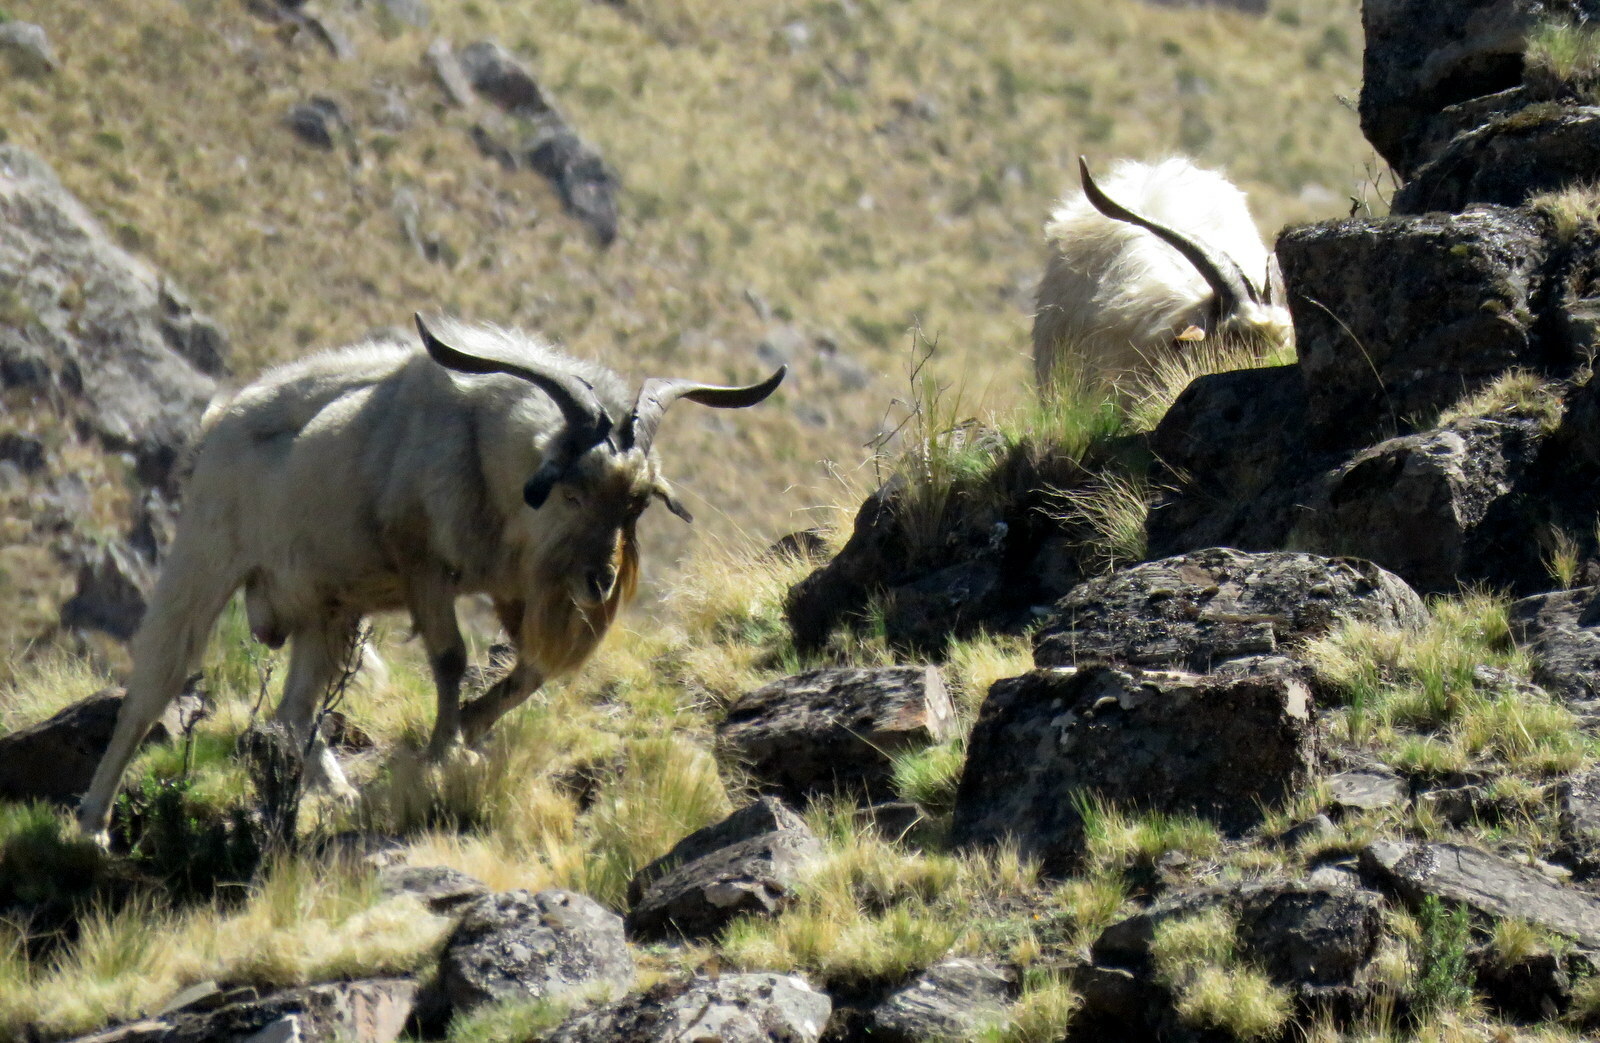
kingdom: Animalia
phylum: Chordata
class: Mammalia
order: Artiodactyla
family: Bovidae
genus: Capra
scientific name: Capra hircus
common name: Domestic goat
